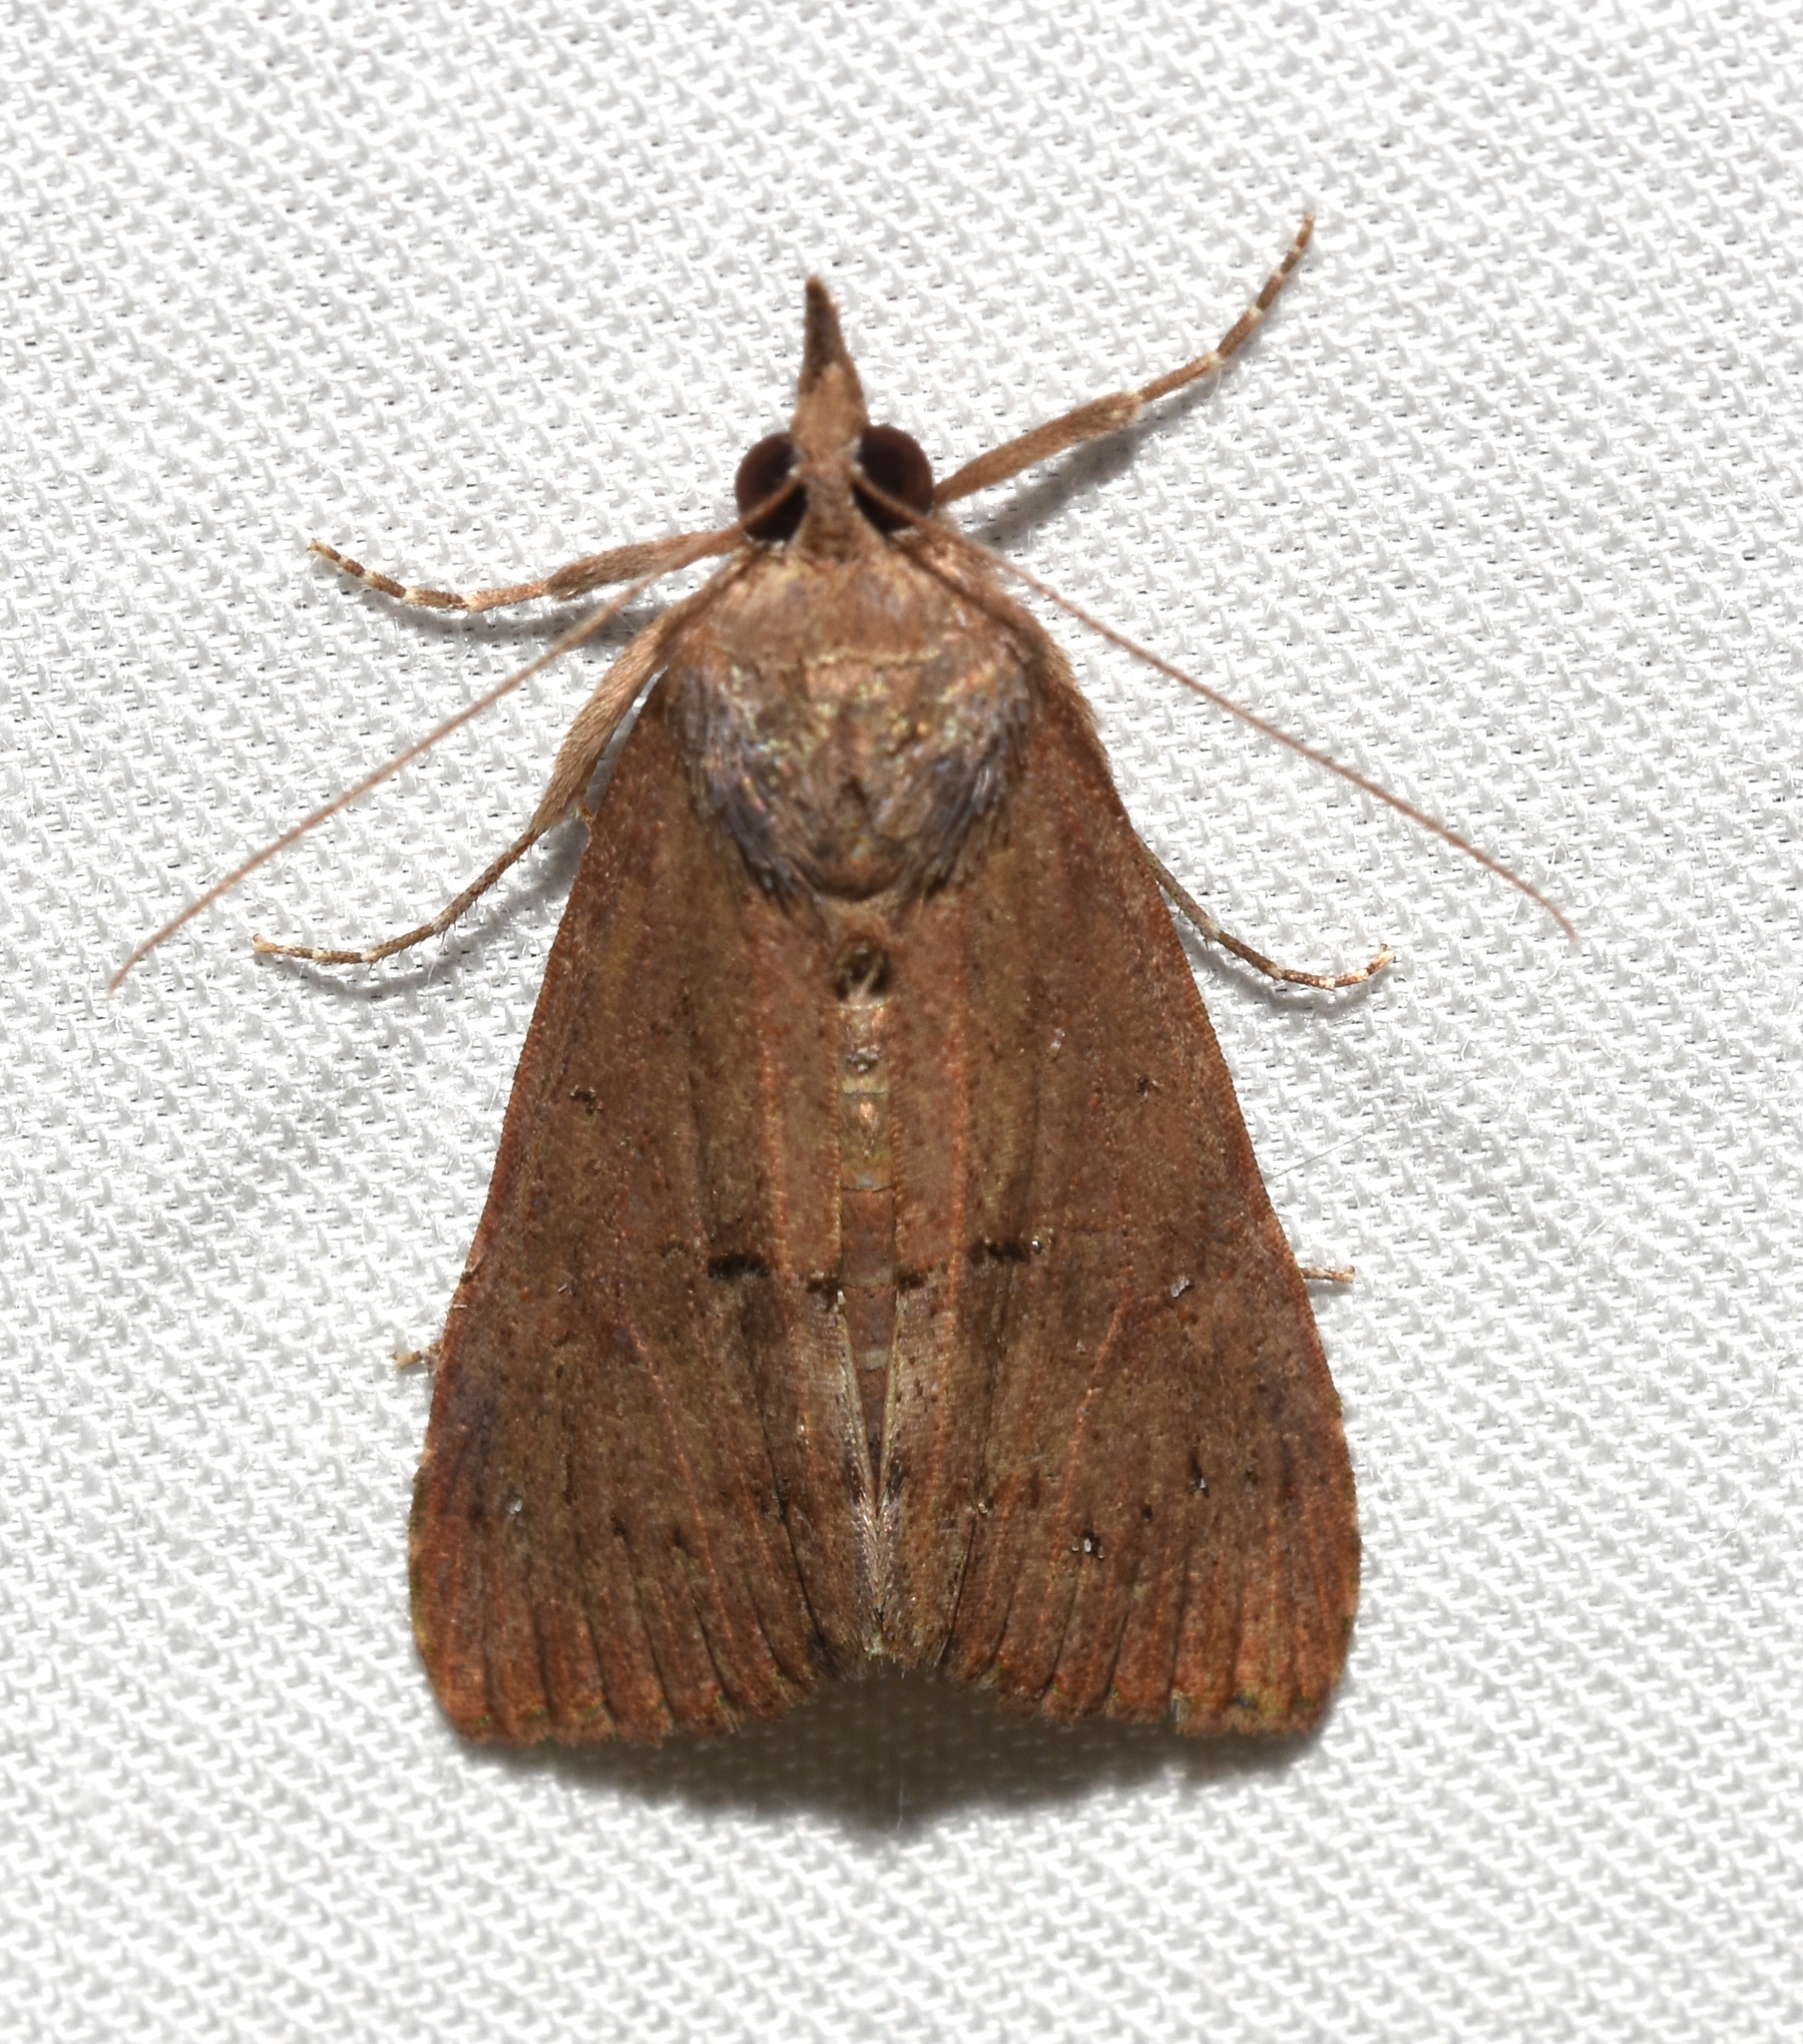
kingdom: Animalia
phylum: Arthropoda
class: Insecta
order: Lepidoptera
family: Erebidae
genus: Hypena
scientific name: Hypena scabra
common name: Green cloverworm
